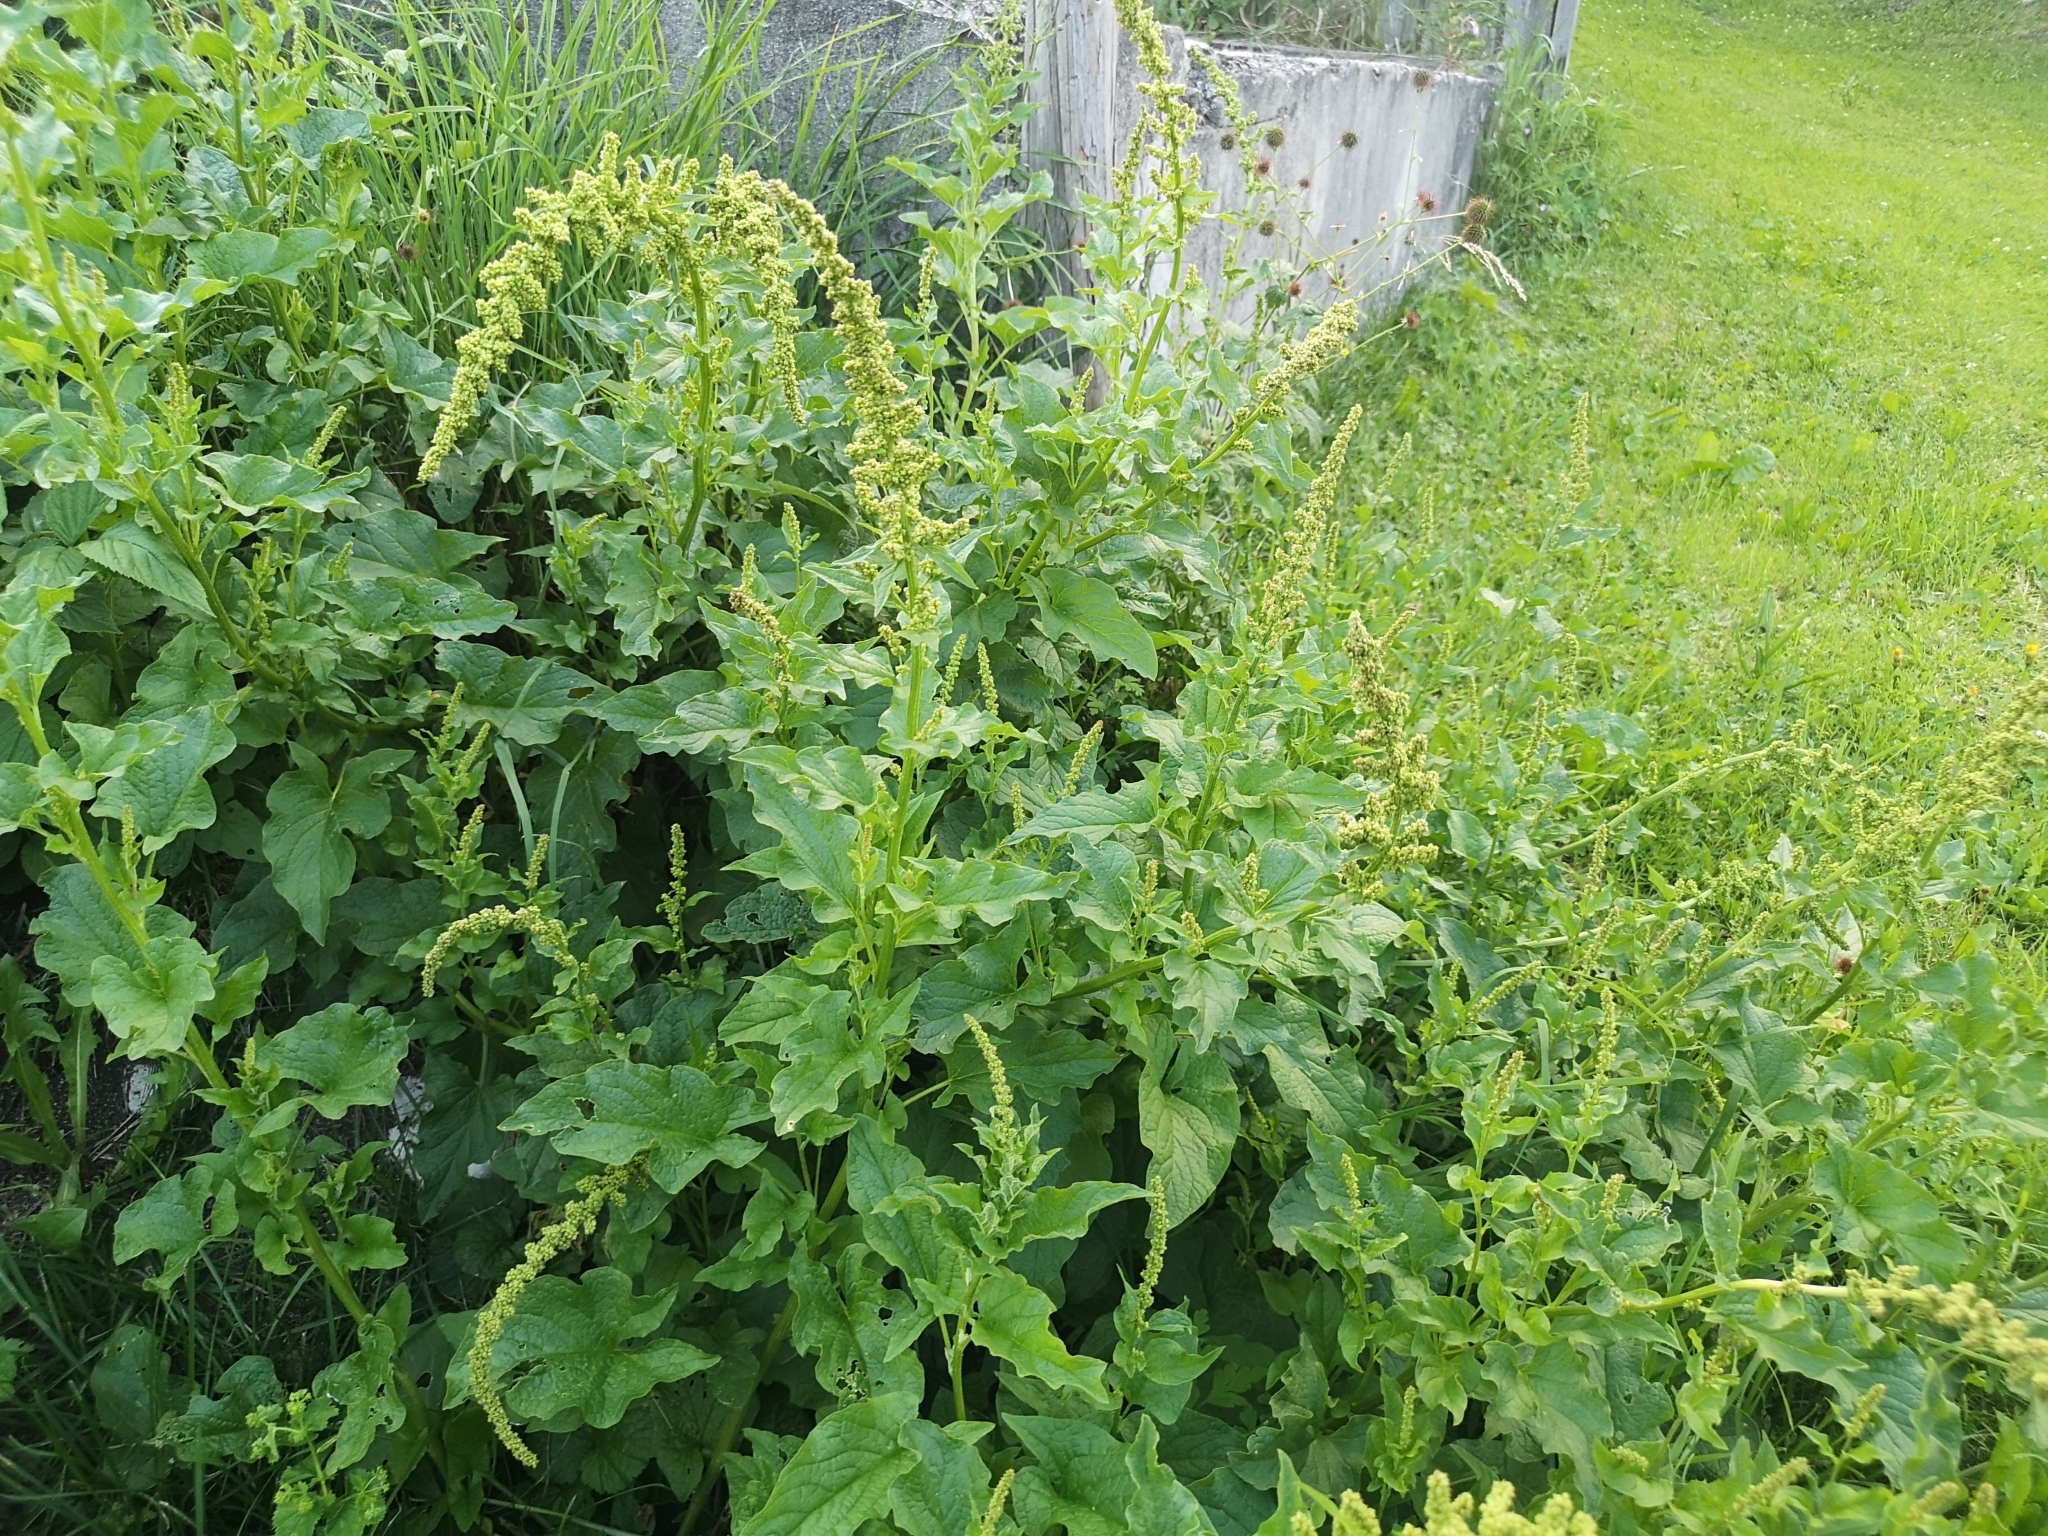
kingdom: Plantae
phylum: Tracheophyta
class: Magnoliopsida
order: Caryophyllales
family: Amaranthaceae
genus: Blitum
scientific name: Blitum bonus-henricus
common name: Good king henry
